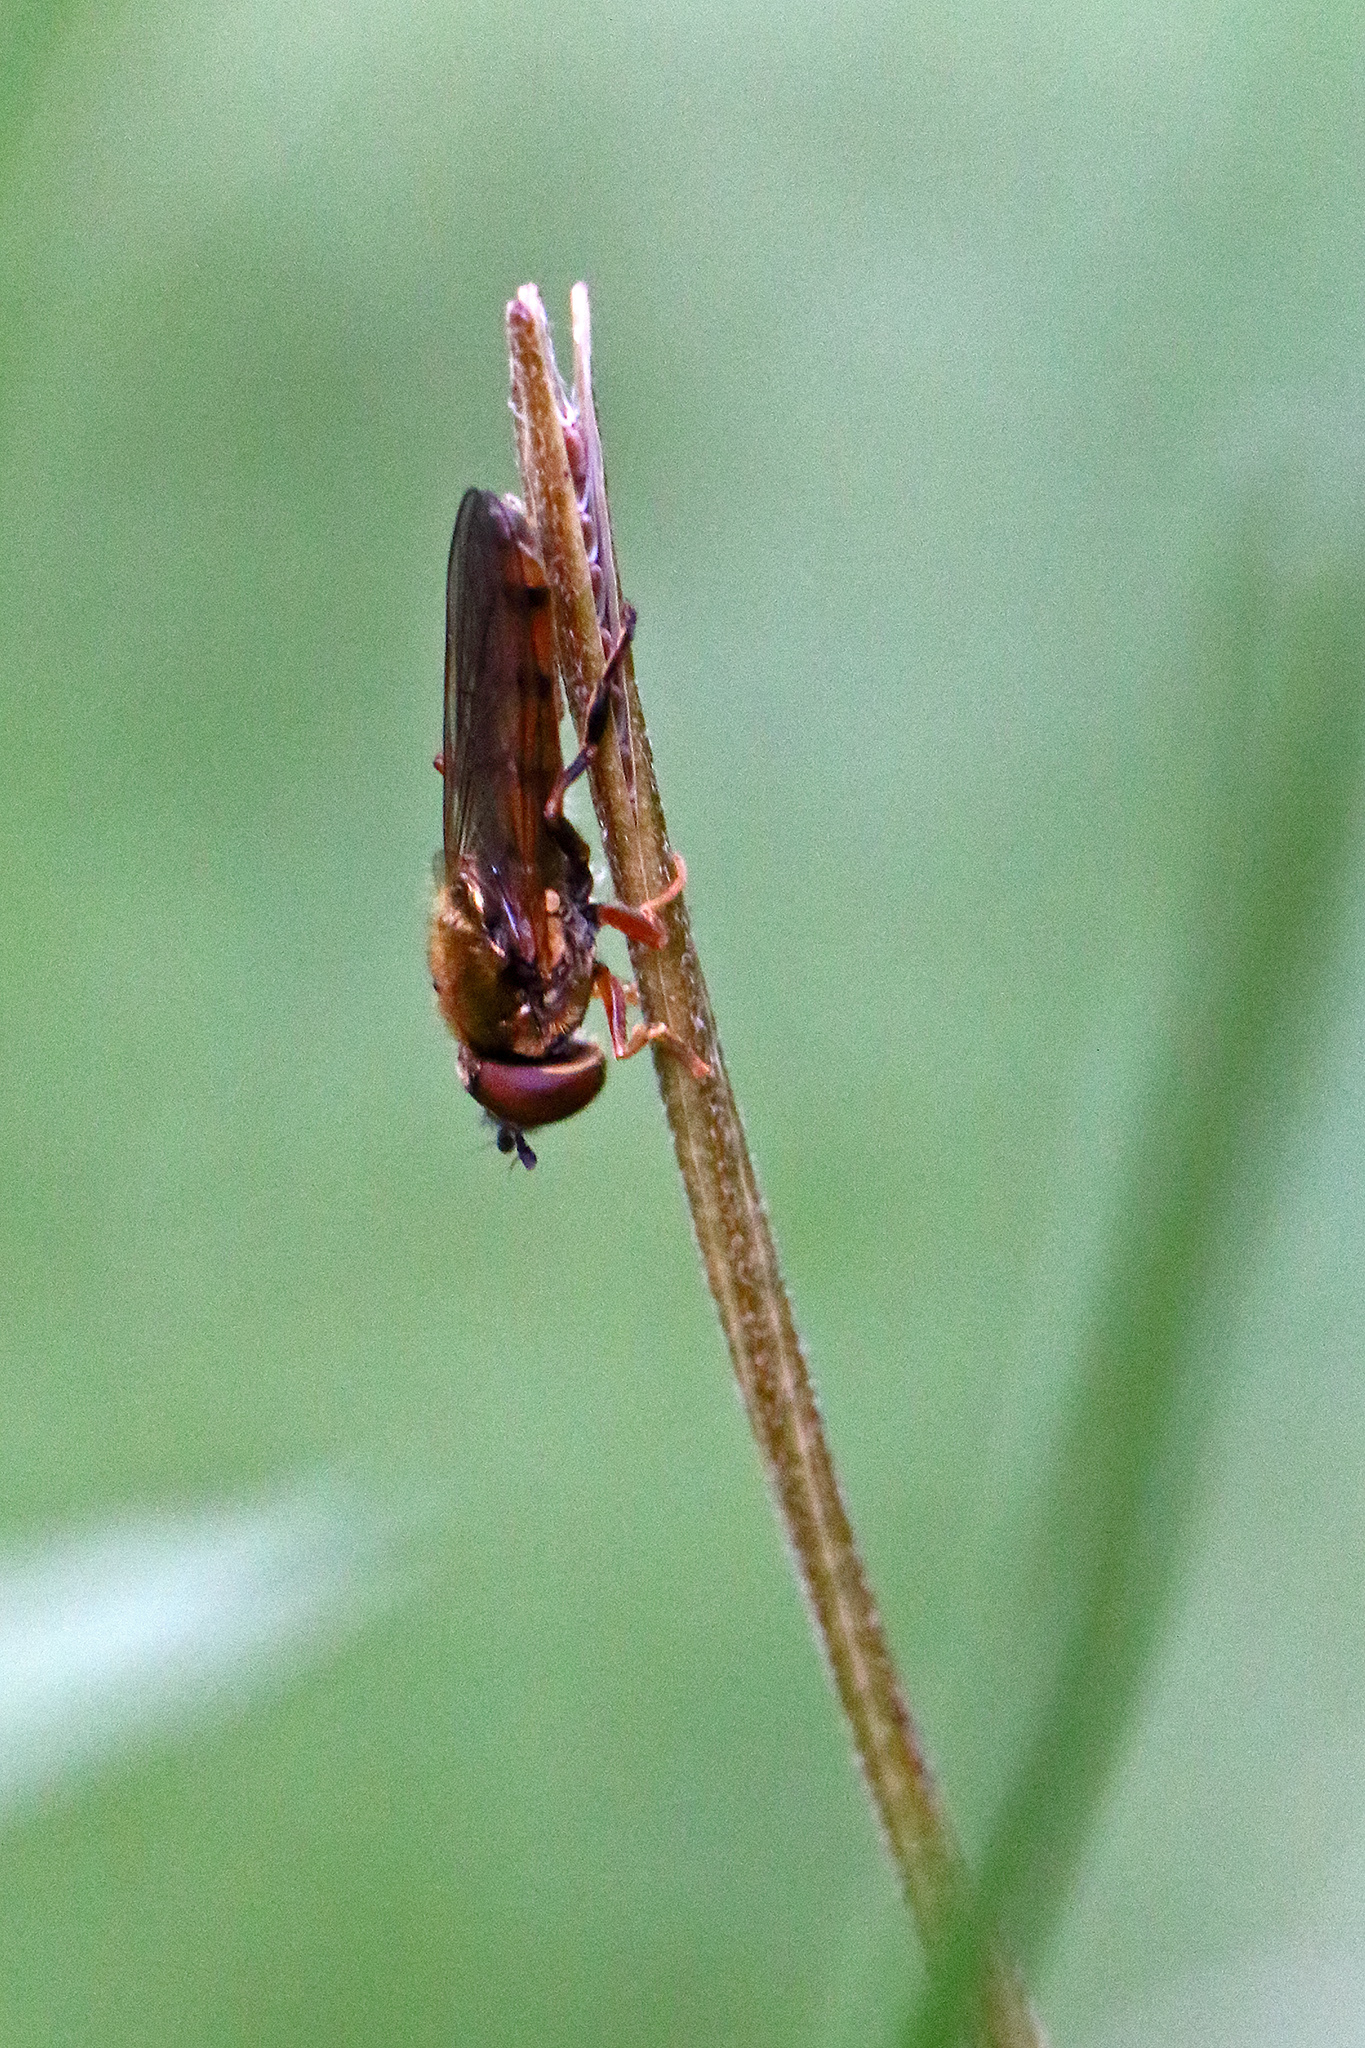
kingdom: Animalia
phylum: Arthropoda
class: Insecta
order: Diptera
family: Syrphidae
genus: Platycheirus
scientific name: Platycheirus scambus
